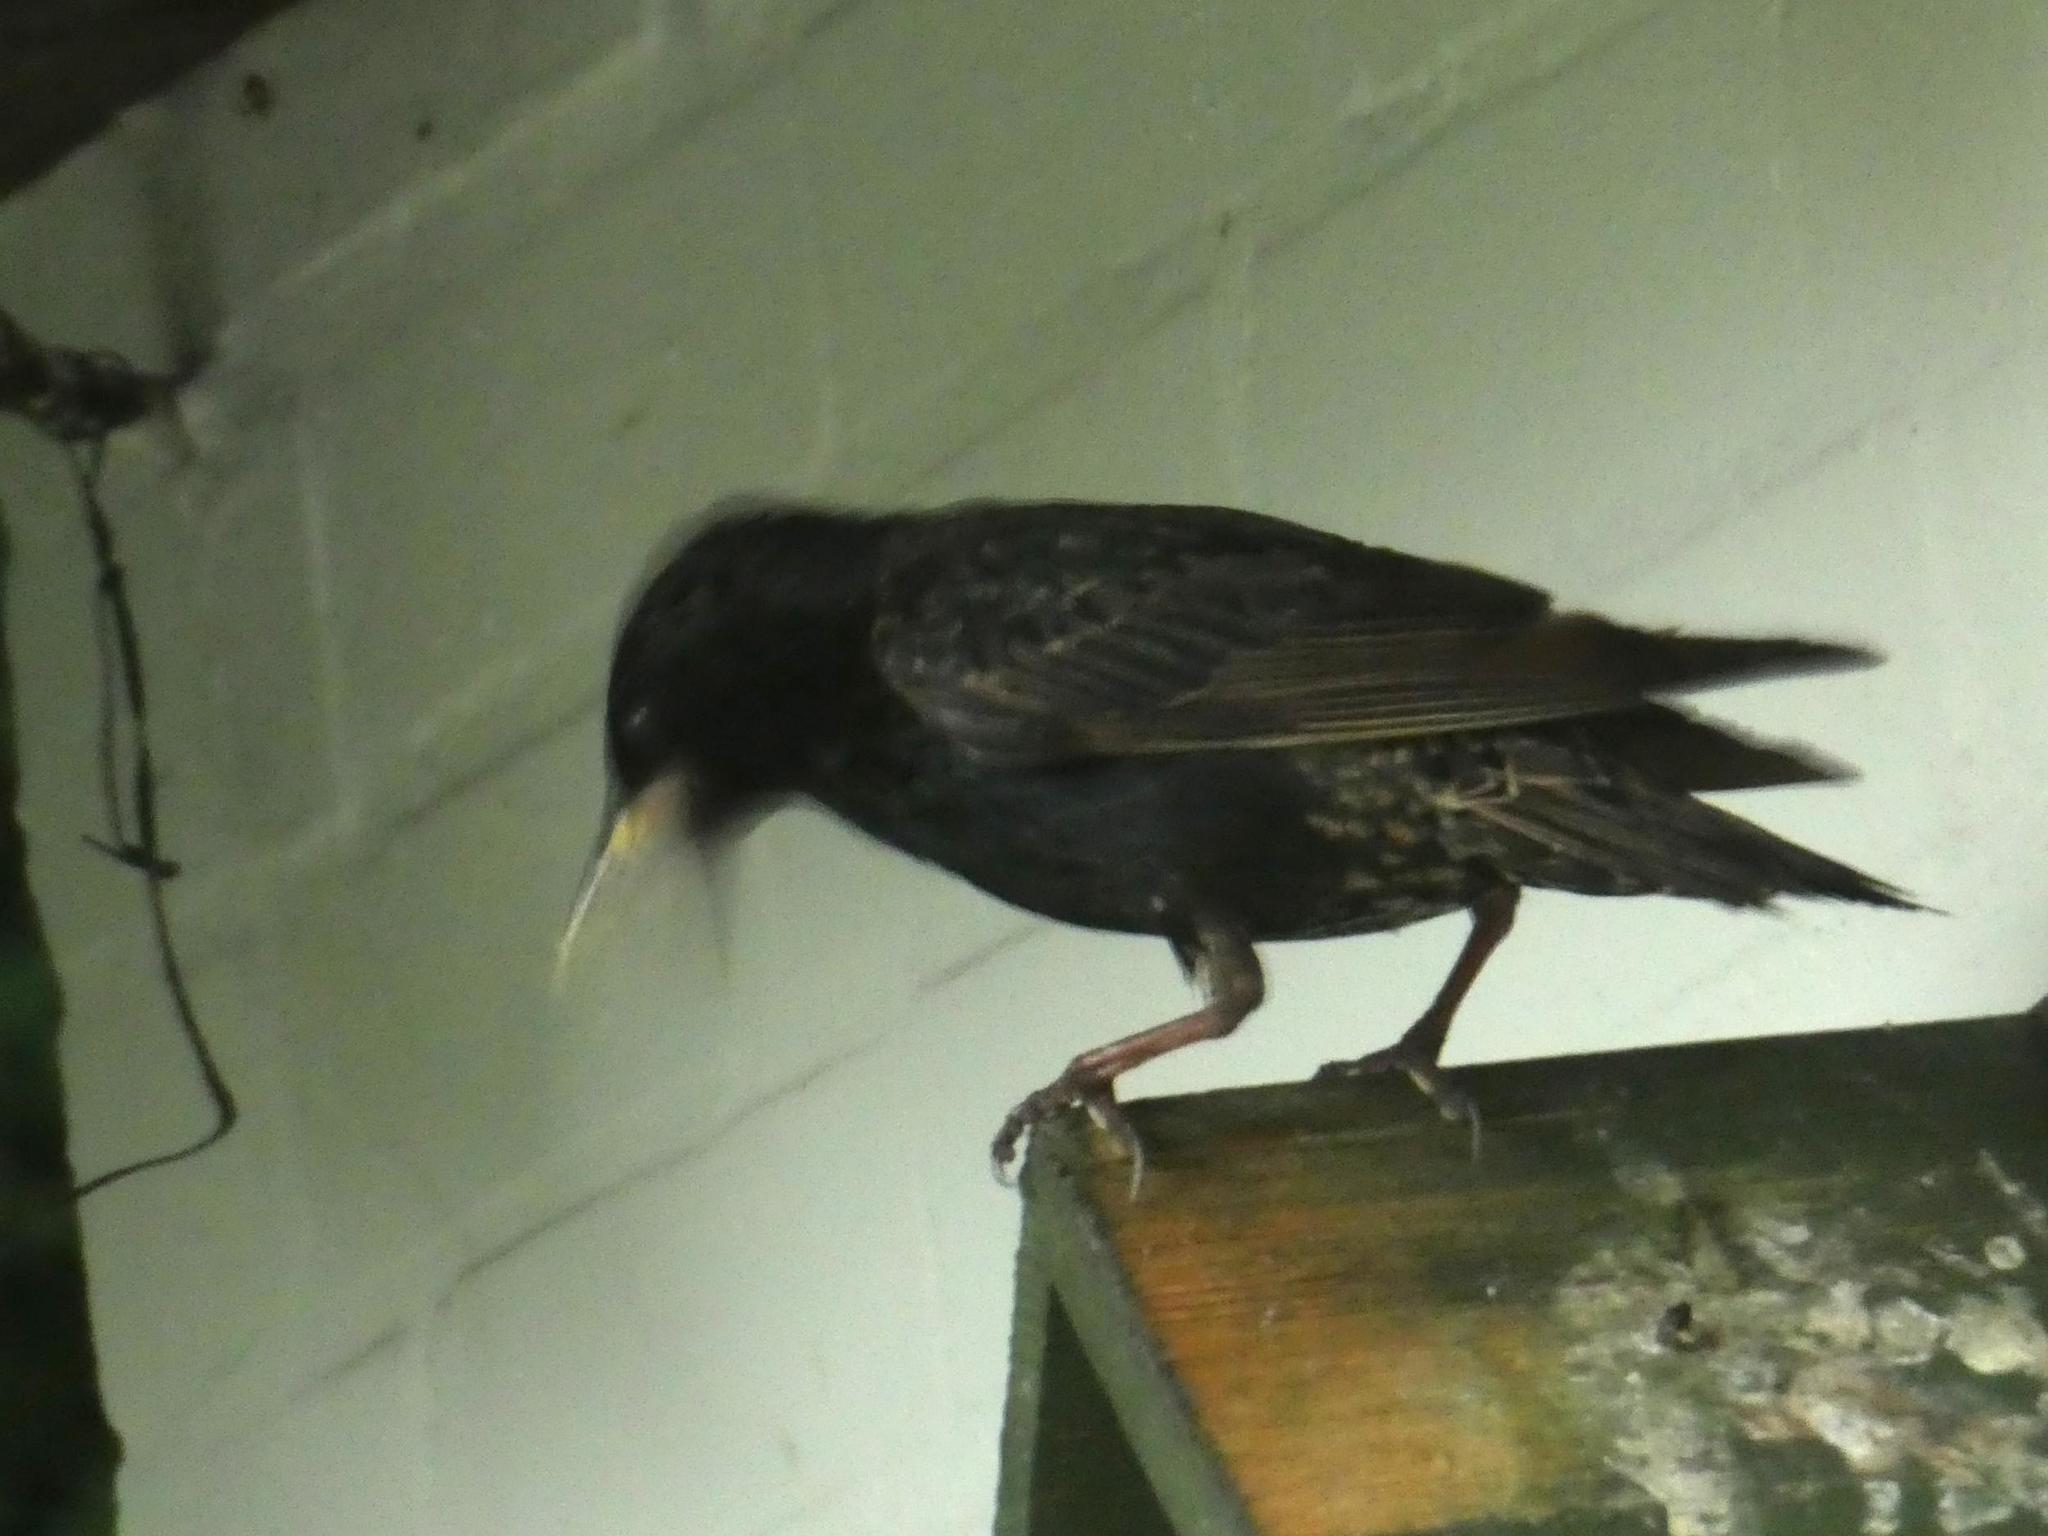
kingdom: Animalia
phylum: Chordata
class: Aves
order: Passeriformes
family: Sturnidae
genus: Sturnus
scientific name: Sturnus vulgaris
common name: Common starling
